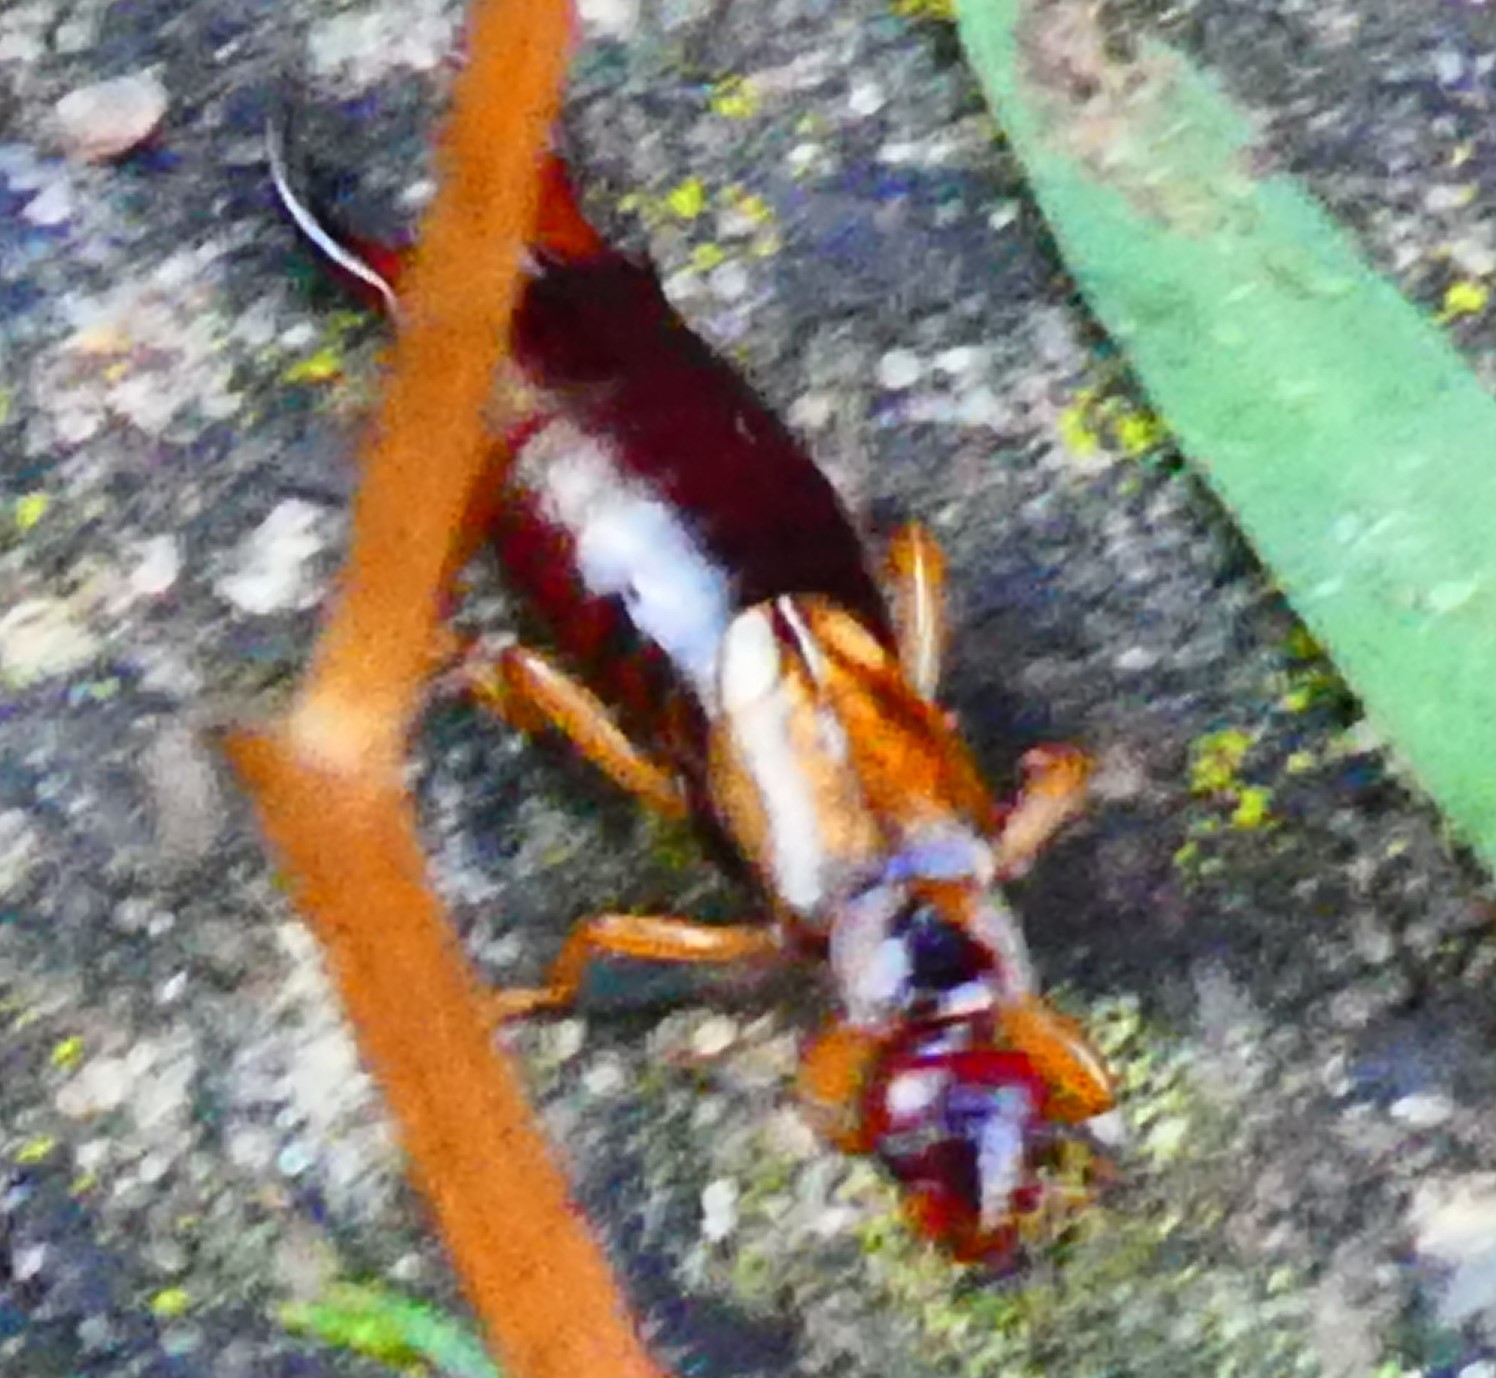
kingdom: Animalia
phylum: Arthropoda
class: Insecta
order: Dermaptera
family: Forficulidae
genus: Forficula
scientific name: Forficula
